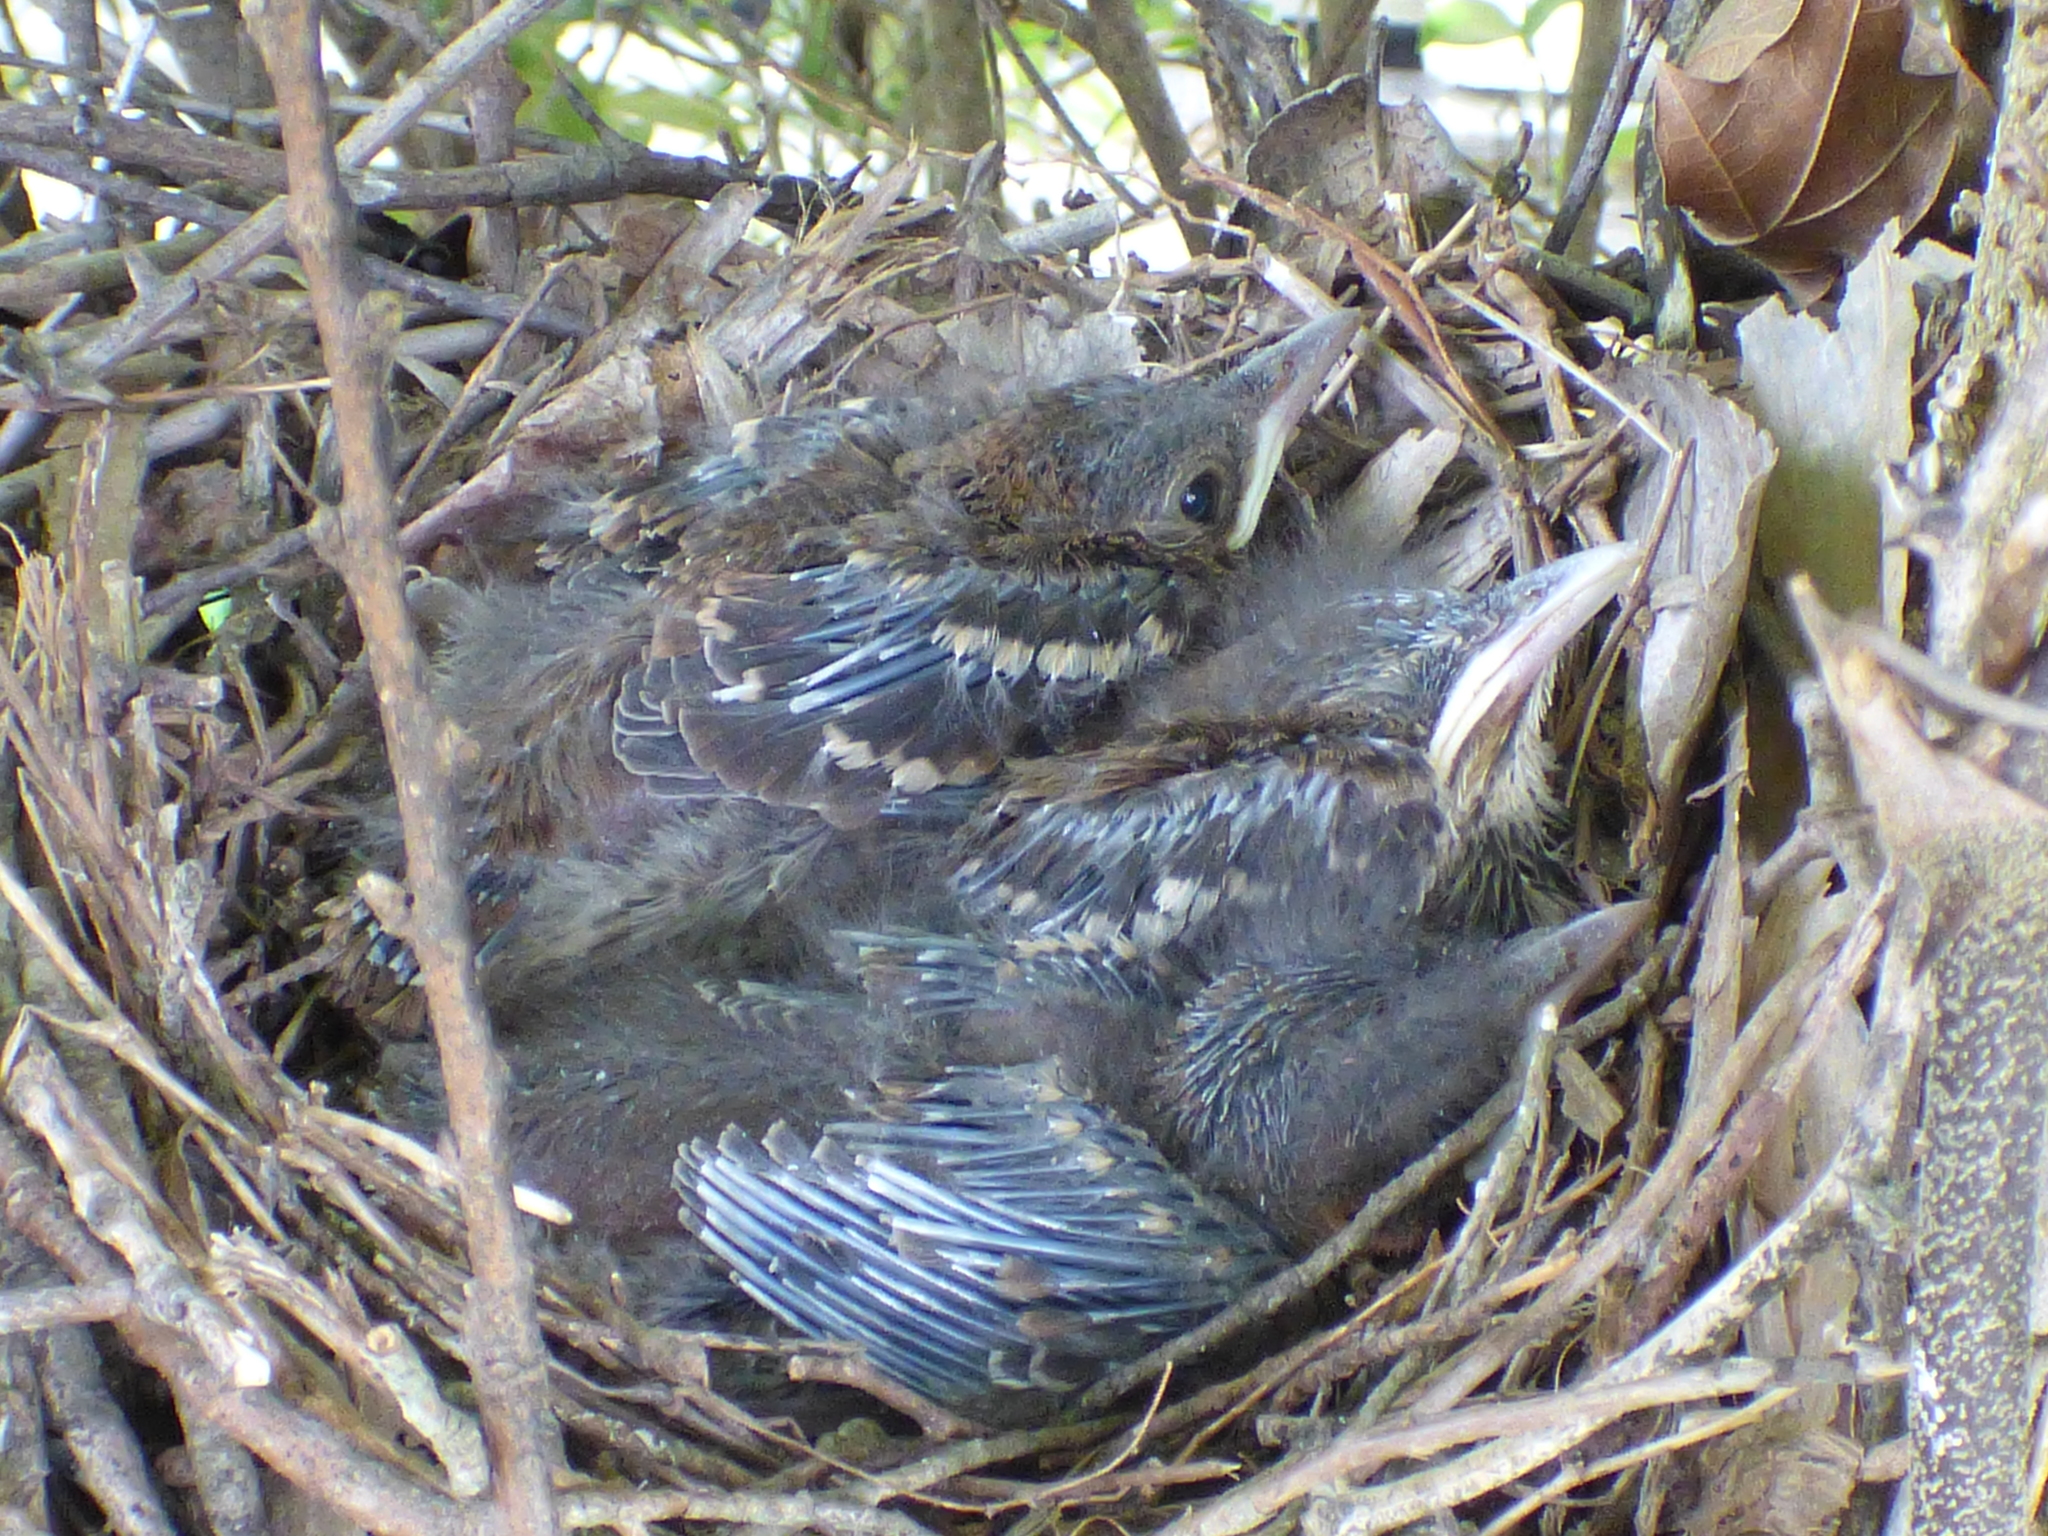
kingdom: Animalia
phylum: Chordata
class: Aves
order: Passeriformes
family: Mimidae
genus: Toxostoma
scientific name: Toxostoma rufum
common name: Brown thrasher
